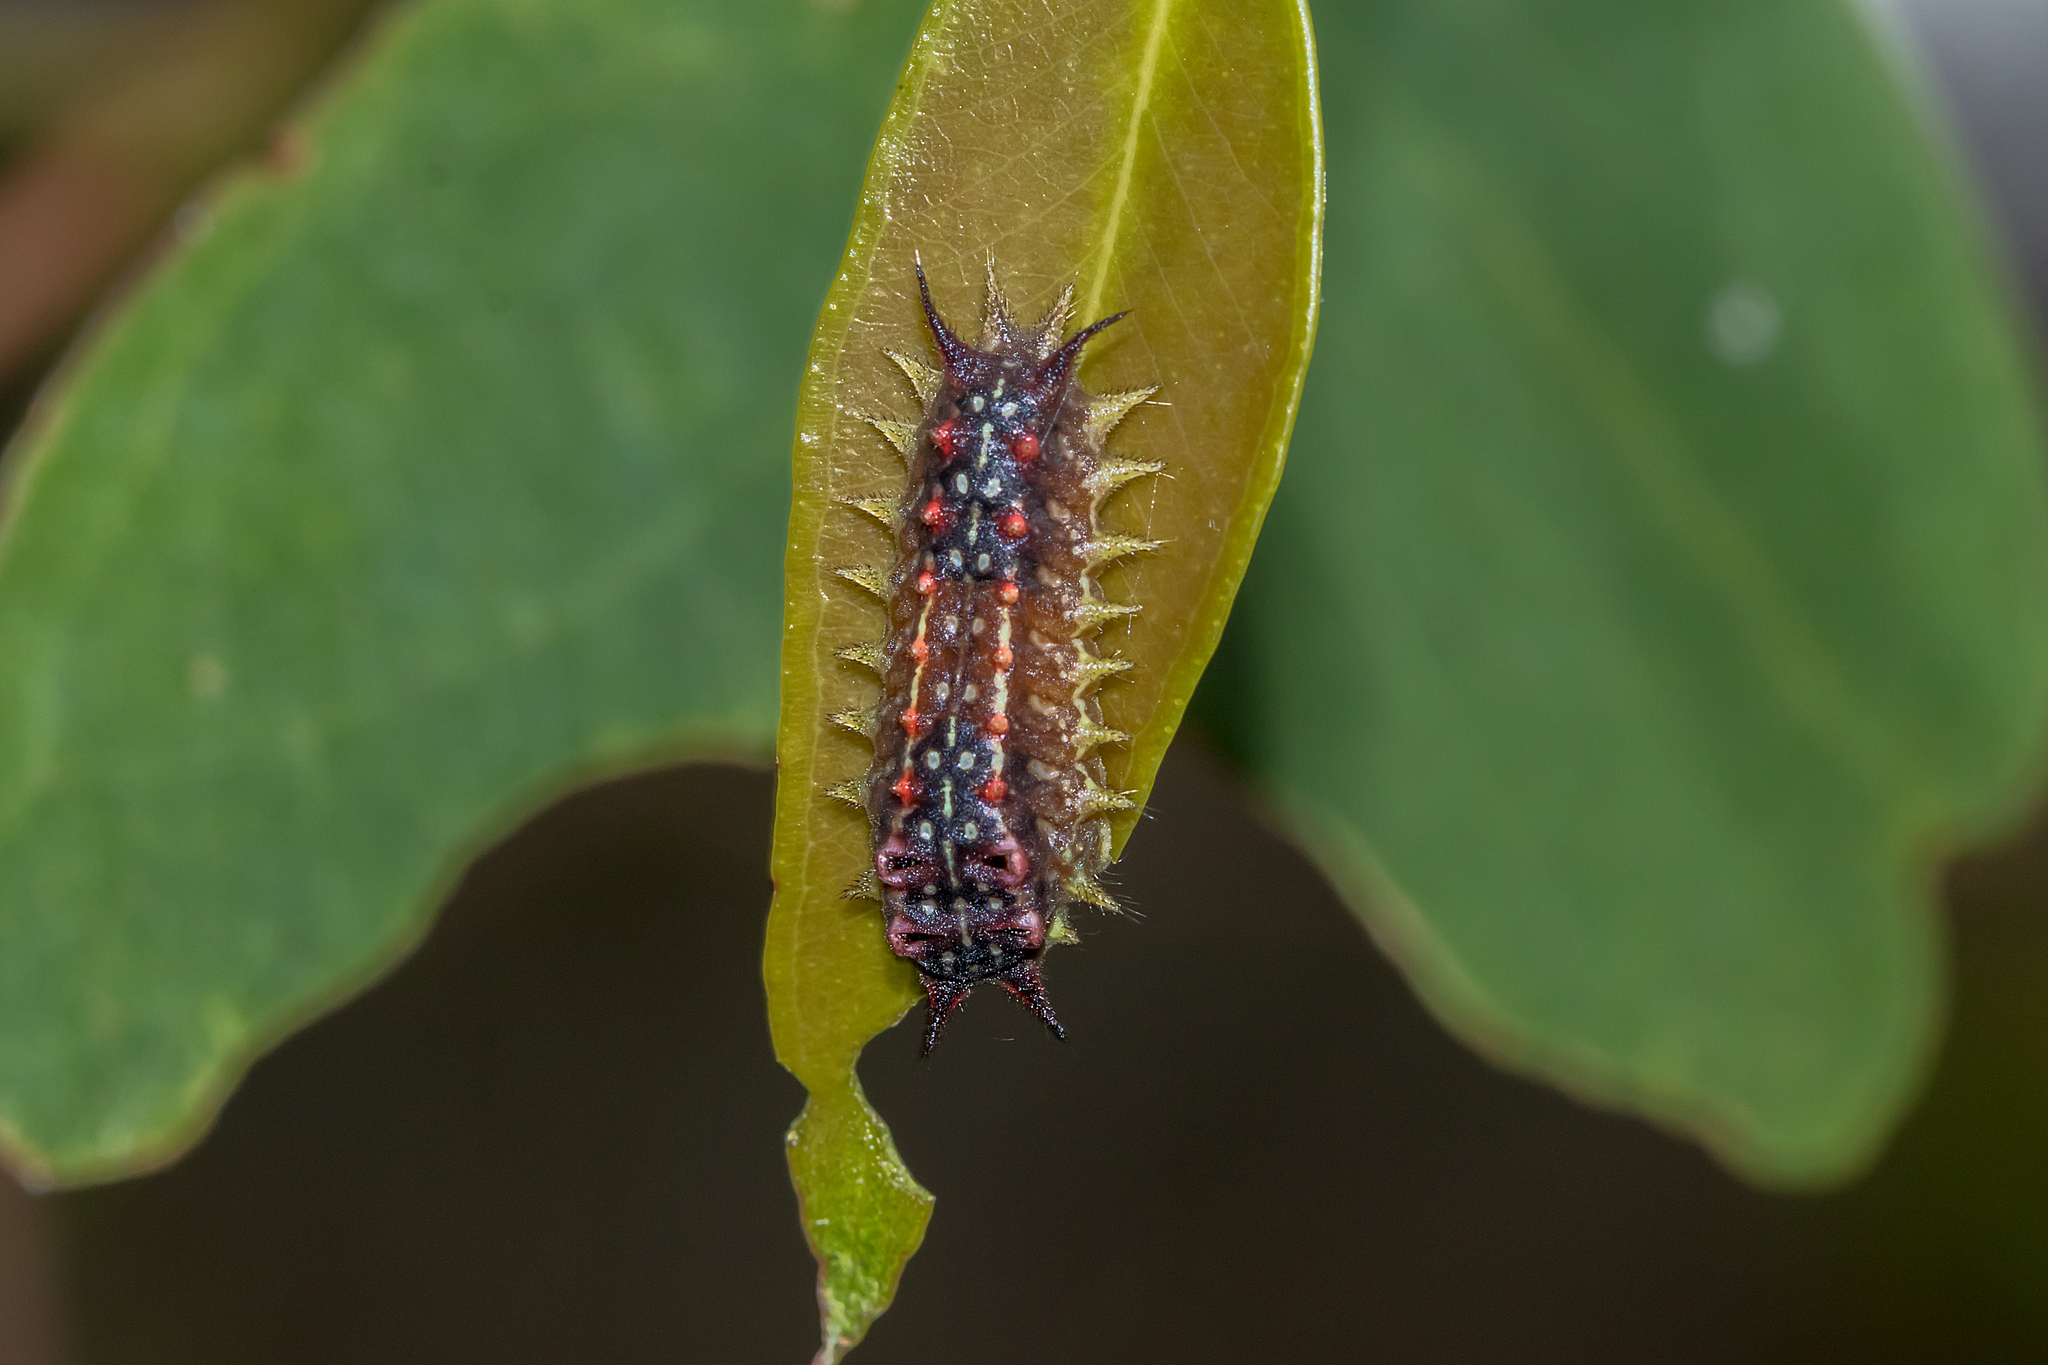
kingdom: Animalia
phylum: Arthropoda
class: Insecta
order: Lepidoptera
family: Limacodidae
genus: Doratifera
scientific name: Doratifera quadriguttata
